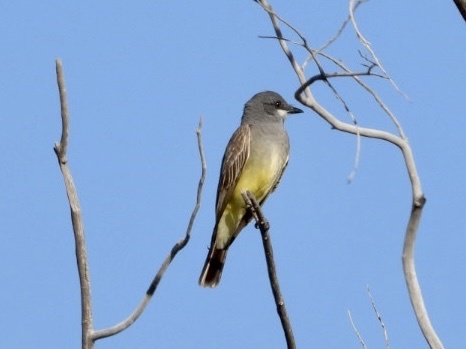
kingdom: Animalia
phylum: Chordata
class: Aves
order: Passeriformes
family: Tyrannidae
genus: Tyrannus
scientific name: Tyrannus vociferans
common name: Cassin's kingbird
